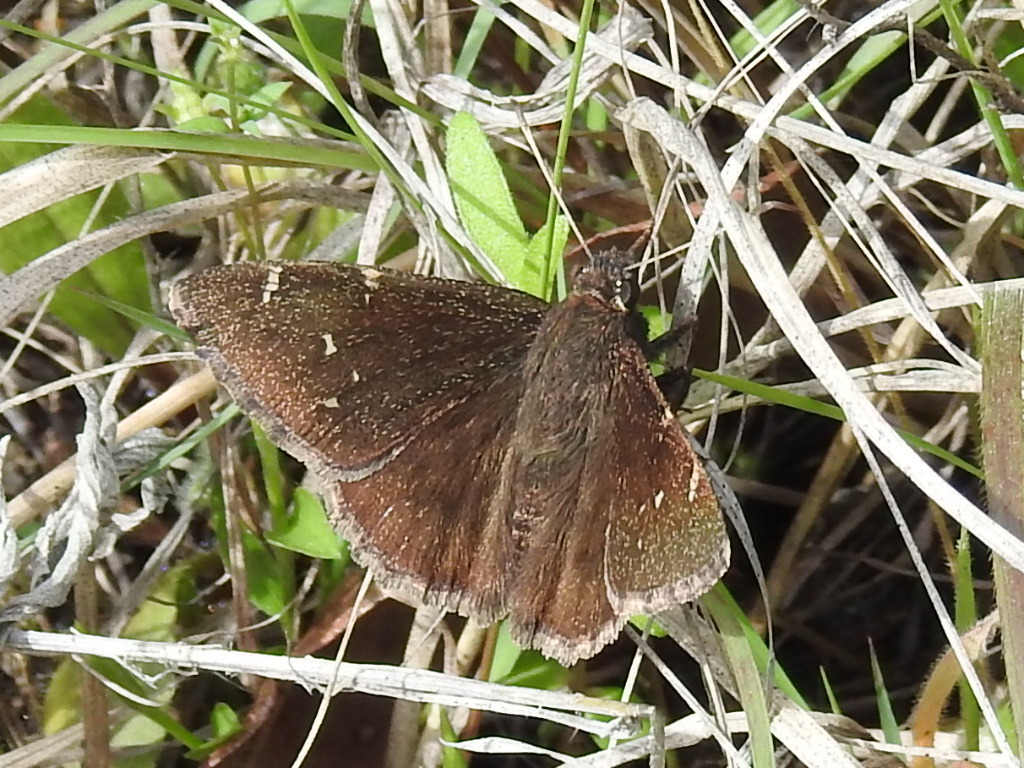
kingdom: Animalia
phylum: Arthropoda
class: Insecta
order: Lepidoptera
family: Hesperiidae
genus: Thorybes
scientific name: Thorybes pylades
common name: Northern cloudywing
